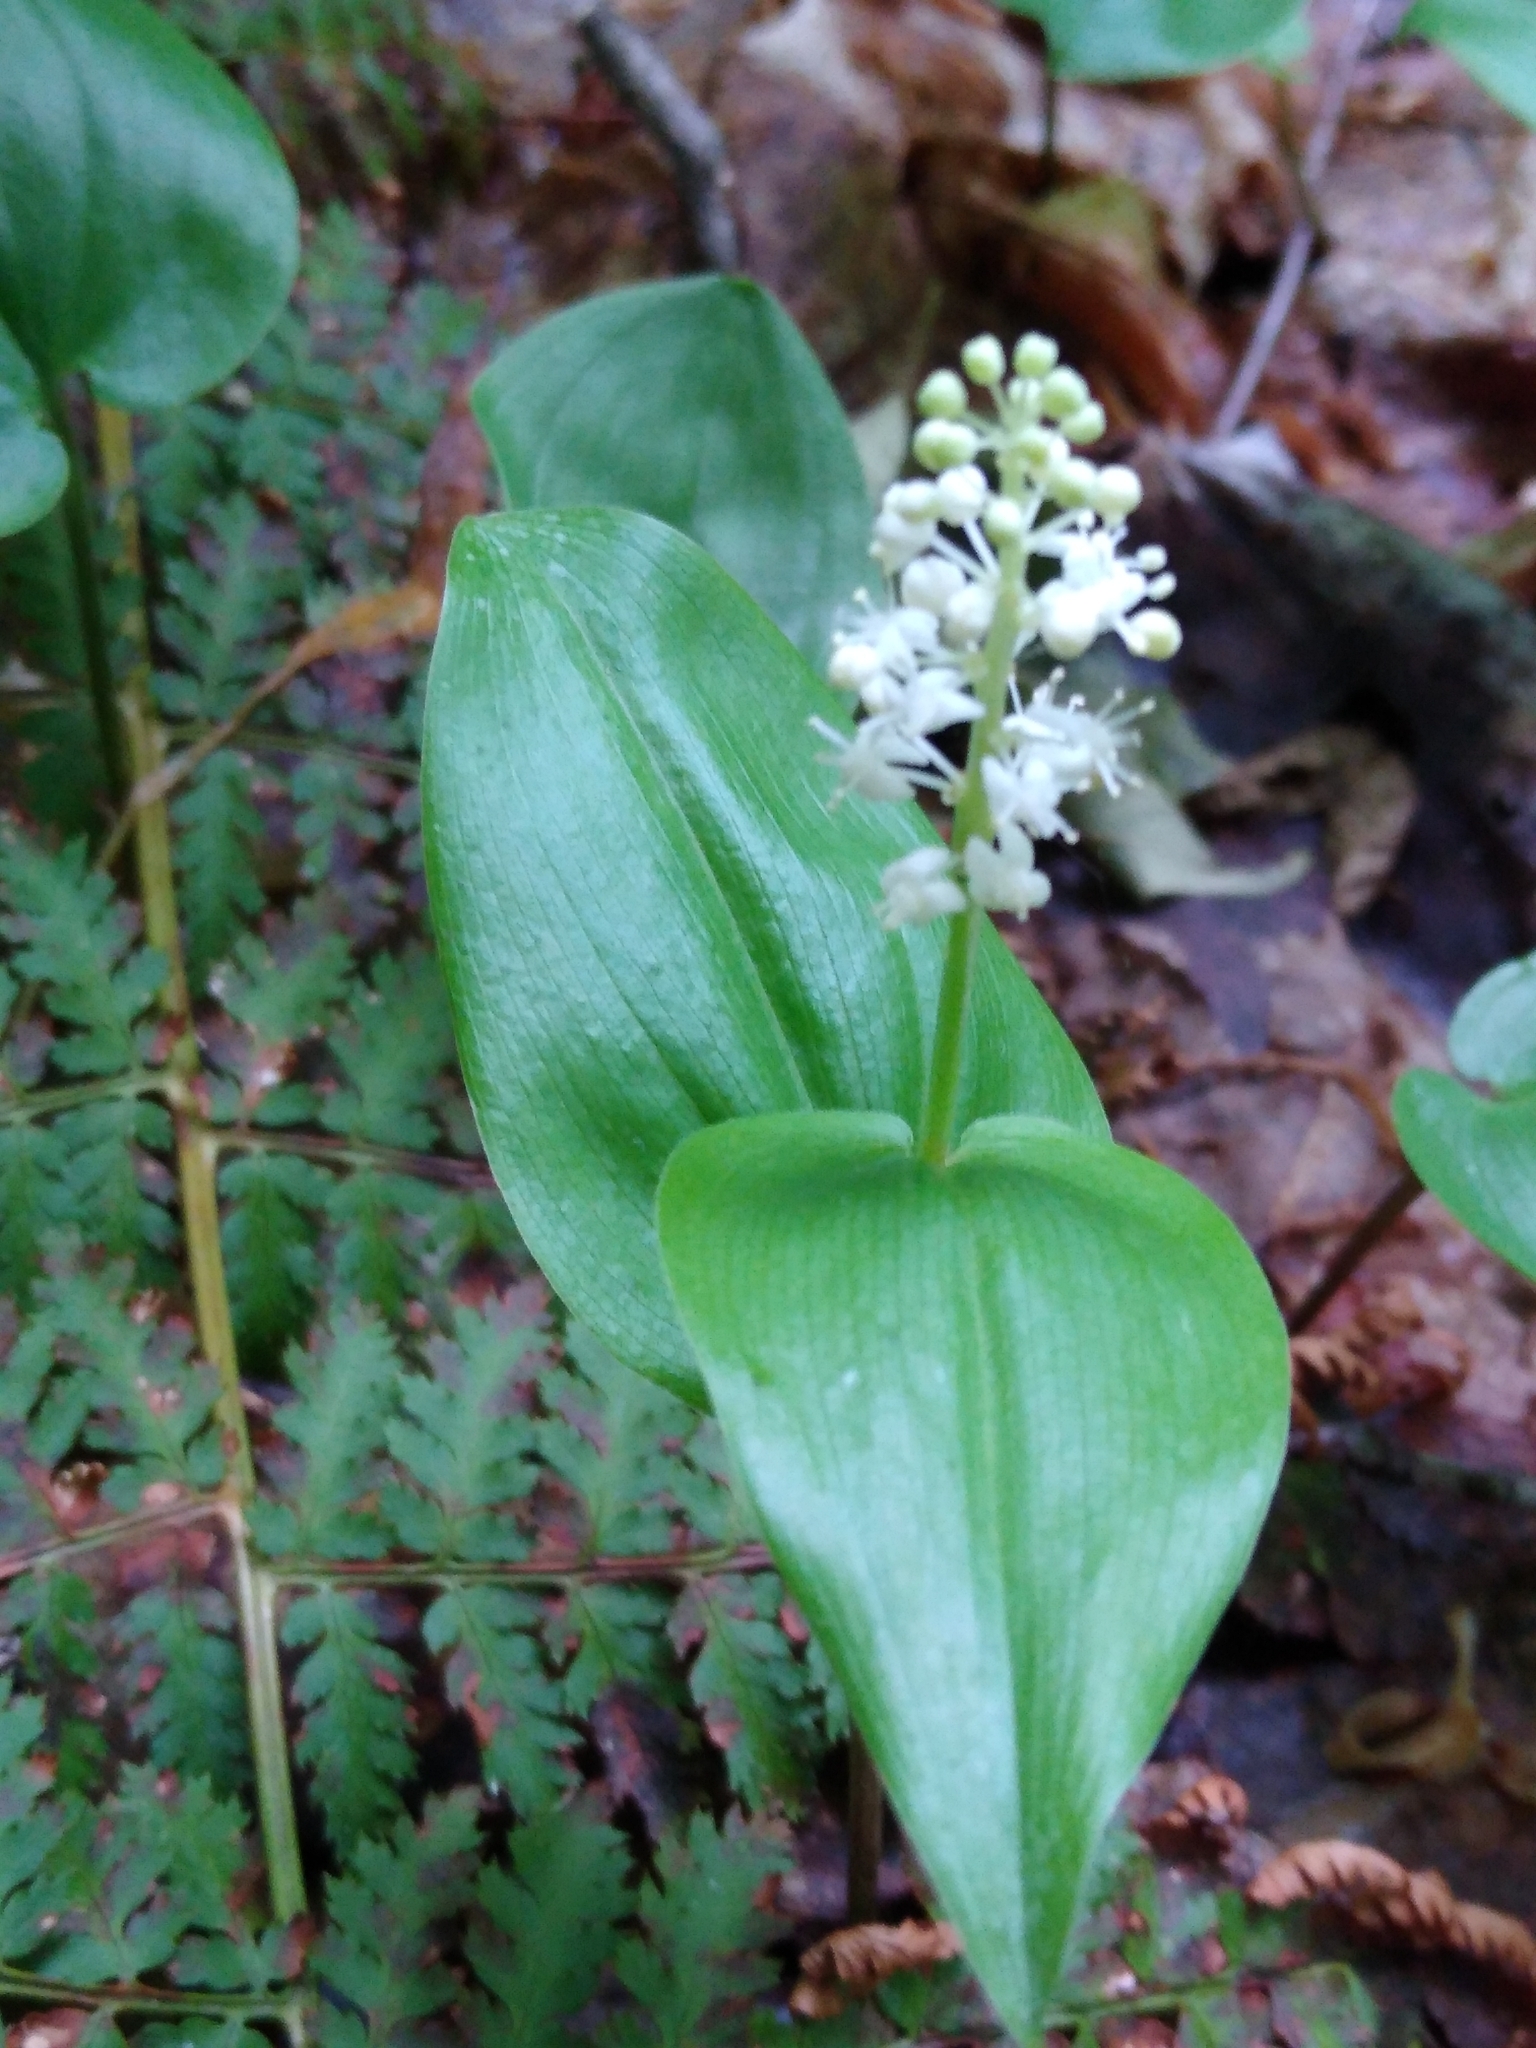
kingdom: Plantae
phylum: Tracheophyta
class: Liliopsida
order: Asparagales
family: Asparagaceae
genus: Maianthemum
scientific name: Maianthemum canadense
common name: False lily-of-the-valley
